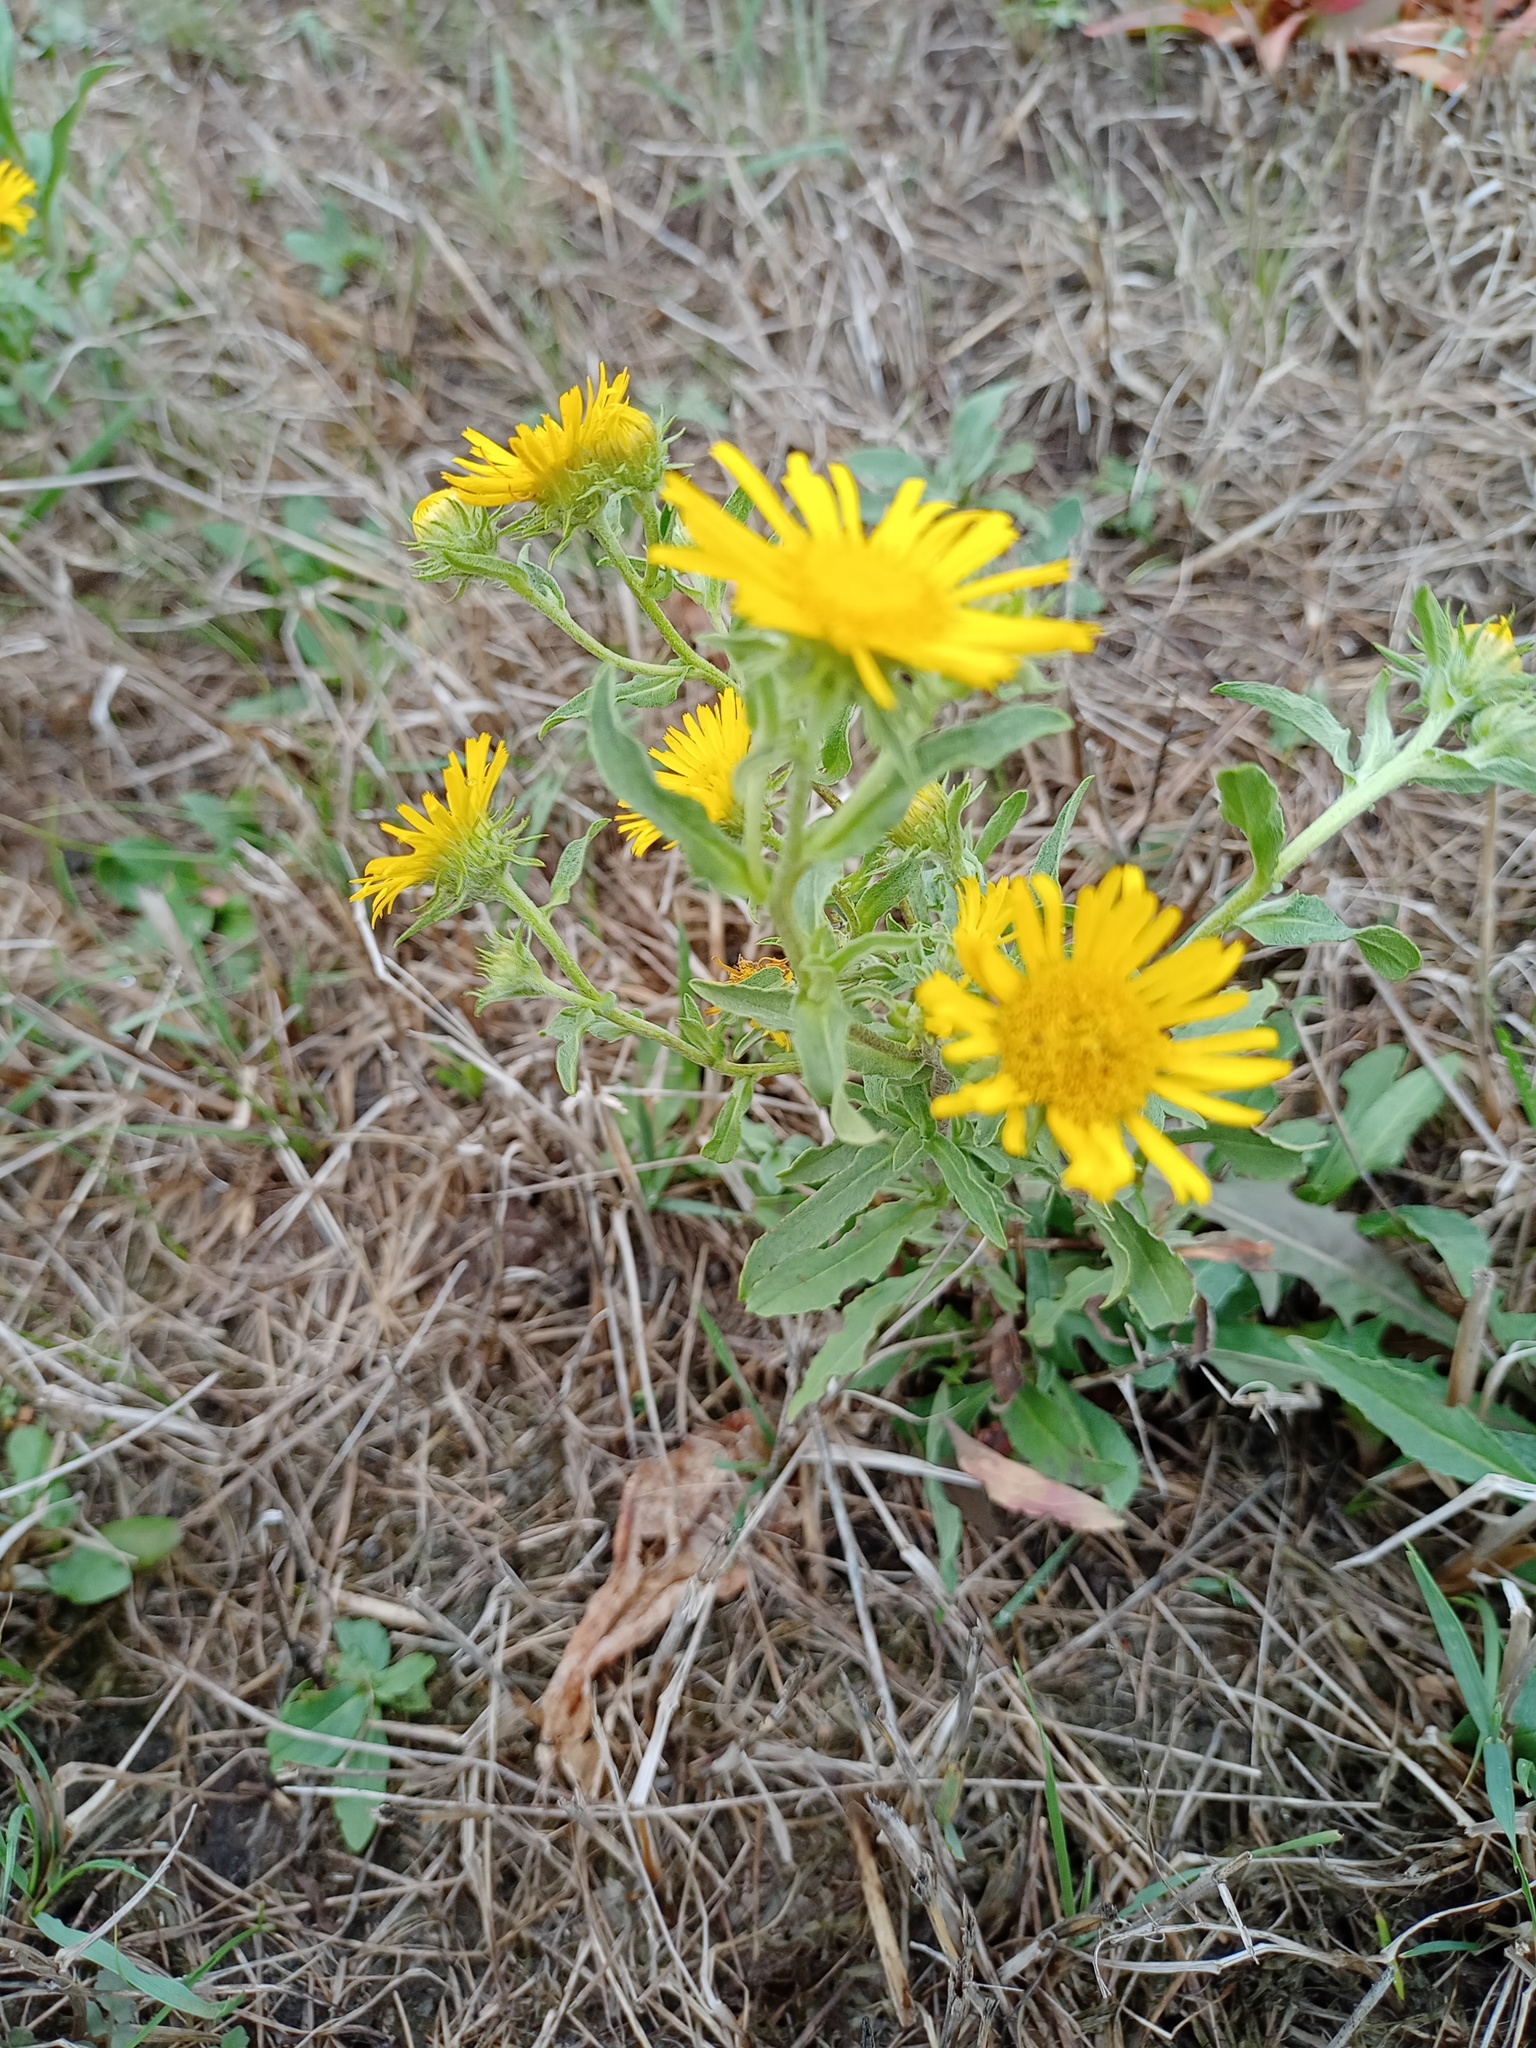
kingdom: Plantae
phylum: Tracheophyta
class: Magnoliopsida
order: Asterales
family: Asteraceae
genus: Pentanema
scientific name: Pentanema britannicum
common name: British elecampane
